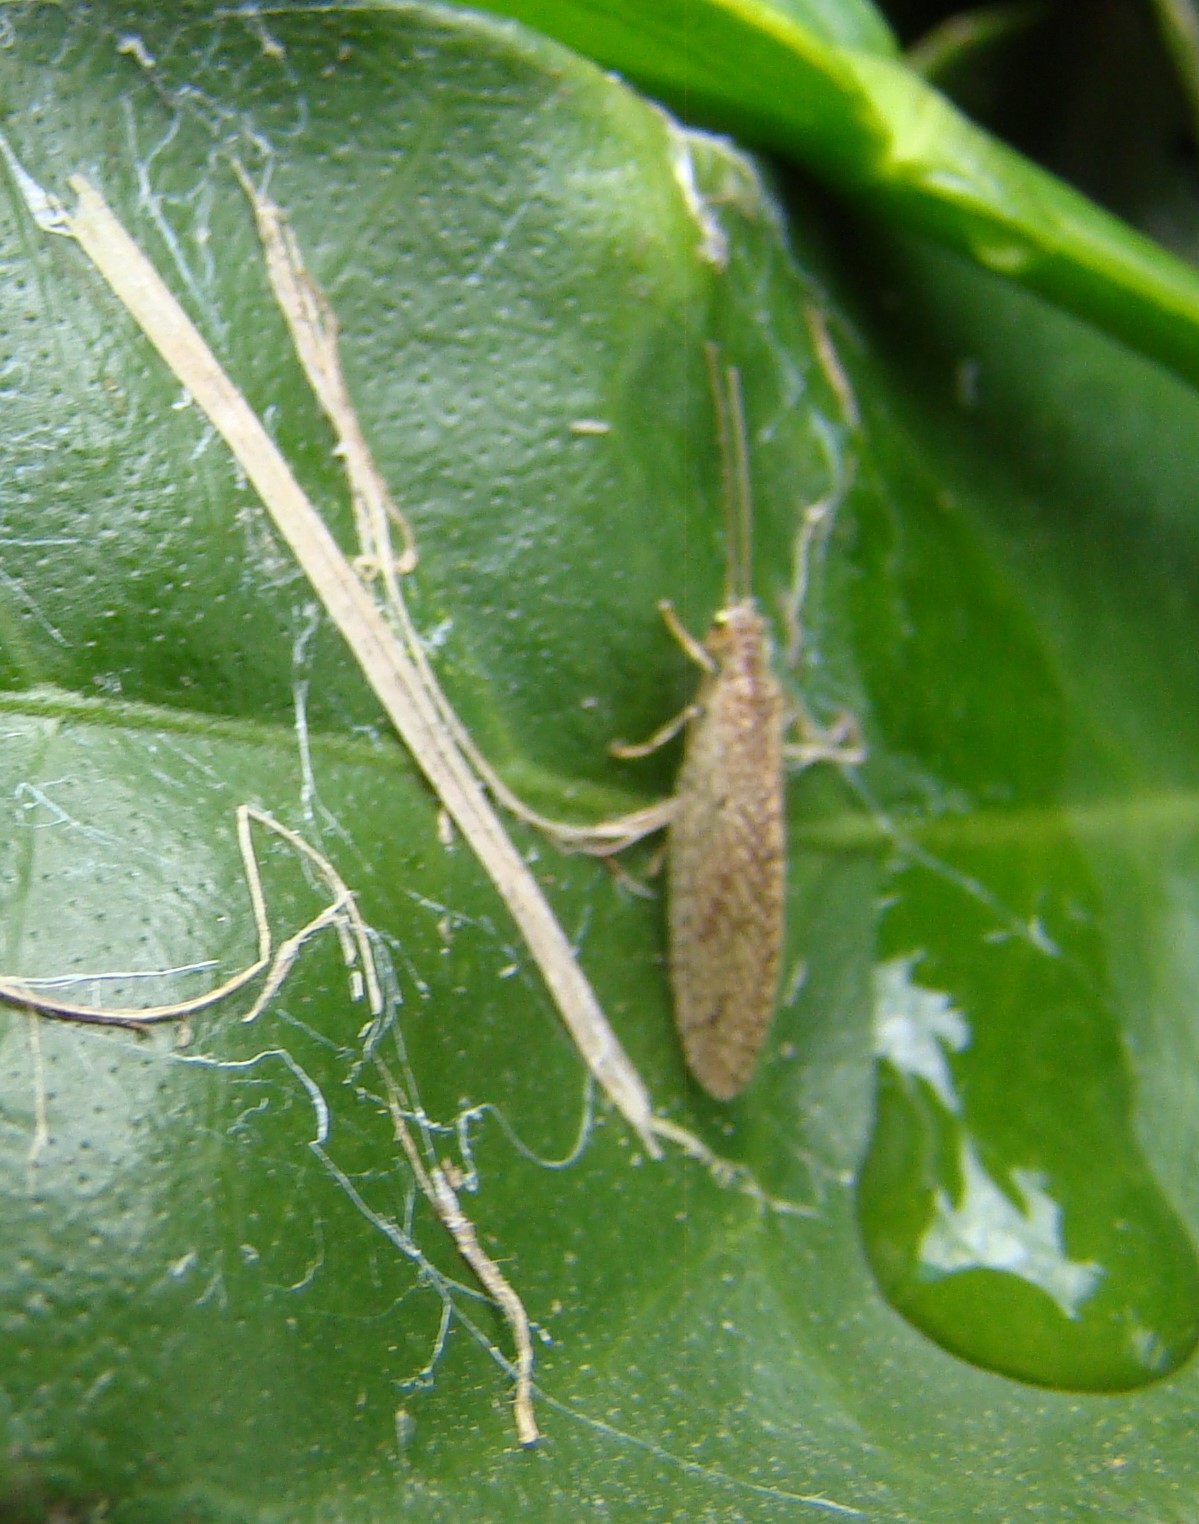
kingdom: Animalia
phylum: Arthropoda
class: Insecta
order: Neuroptera
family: Hemerobiidae
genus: Micromus
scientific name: Micromus tasmaniae
